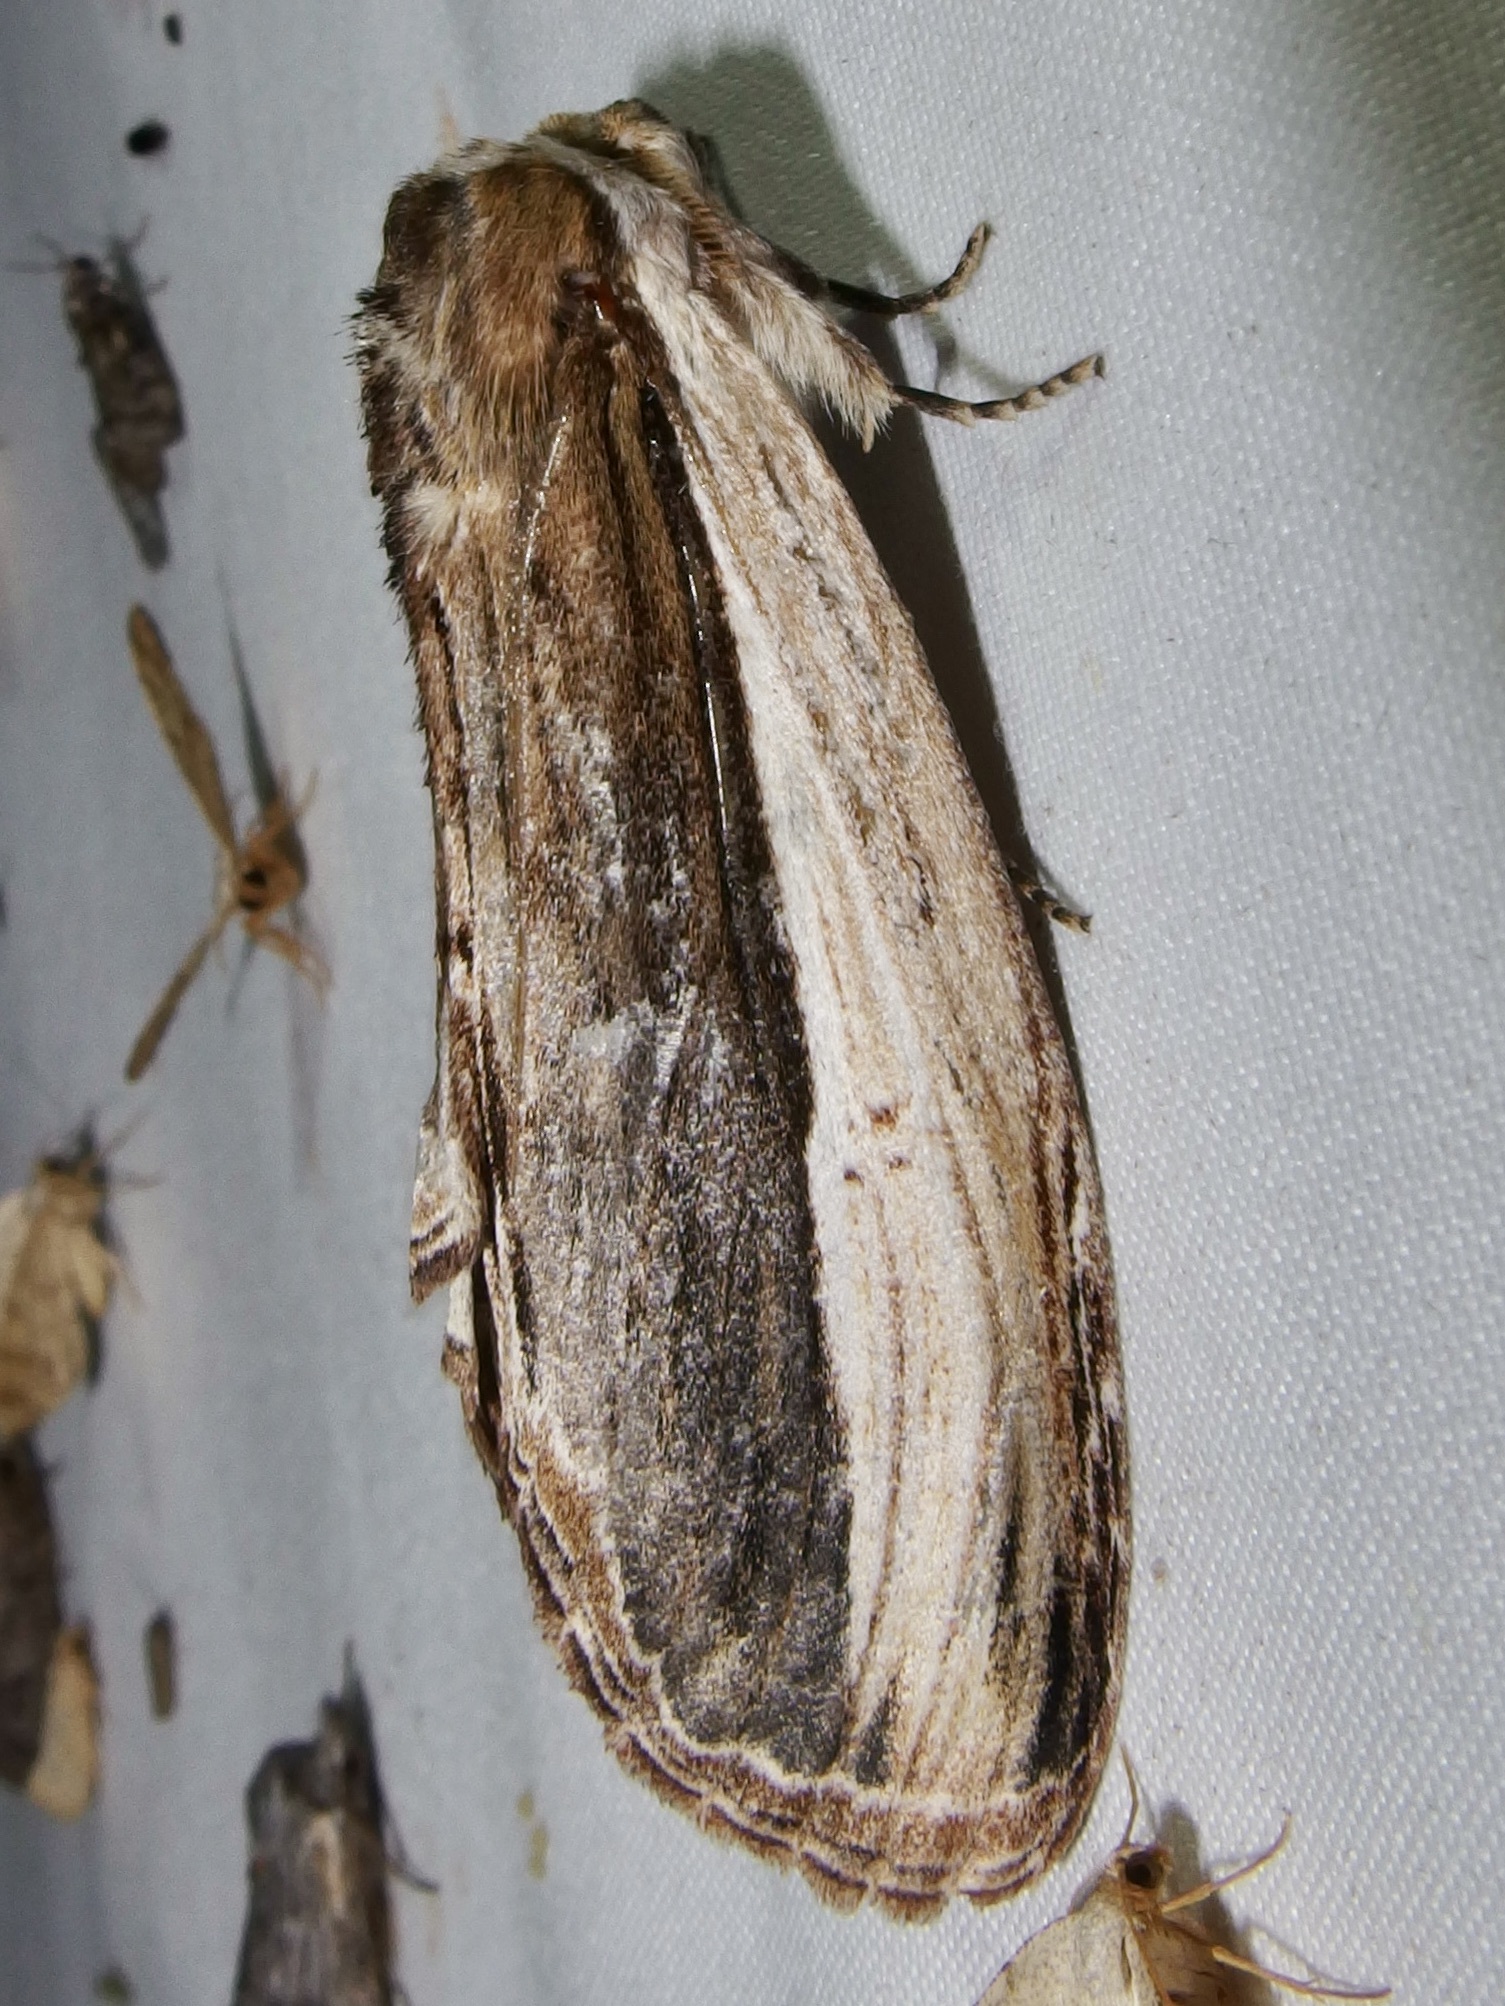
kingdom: Animalia
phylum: Arthropoda
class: Insecta
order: Lepidoptera
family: Notodontidae
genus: Truncaptera
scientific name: Truncaptera inopinata
